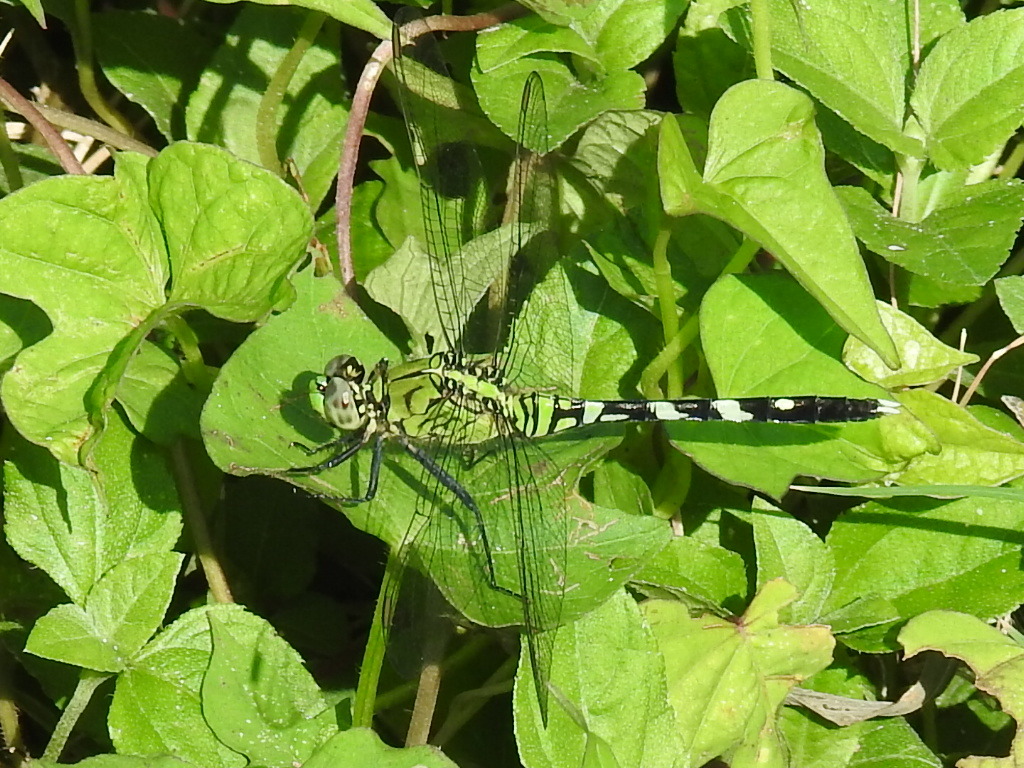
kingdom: Animalia
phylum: Arthropoda
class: Insecta
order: Odonata
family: Libellulidae
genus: Erythemis
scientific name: Erythemis simplicicollis
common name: Eastern pondhawk
